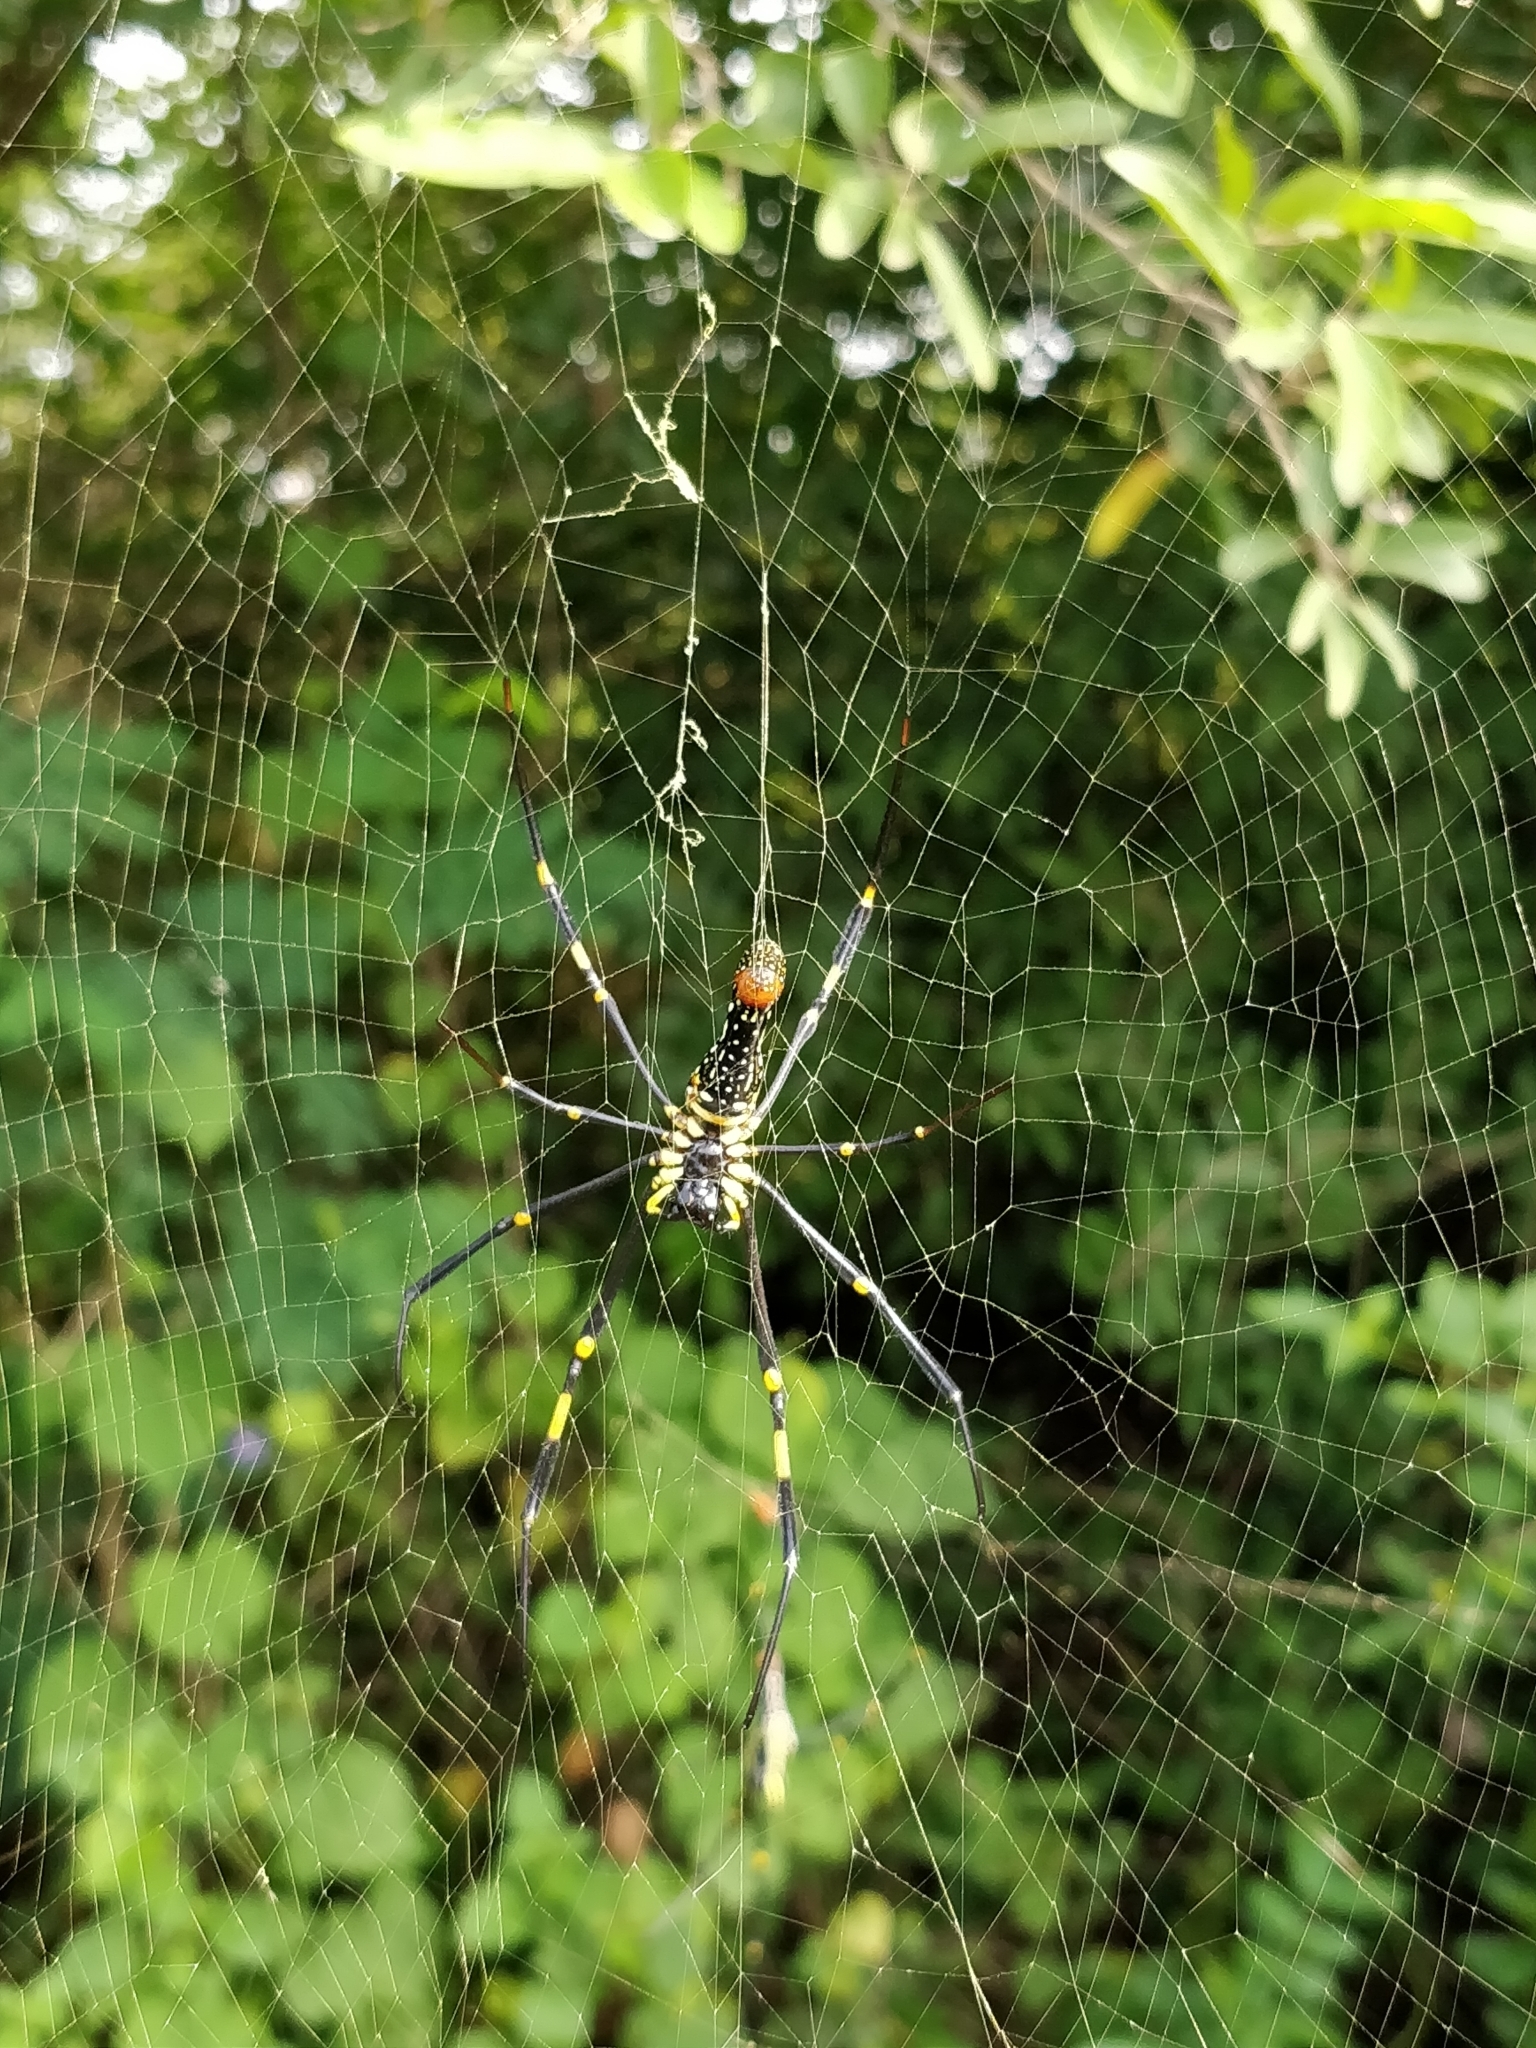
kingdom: Animalia
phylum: Arthropoda
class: Arachnida
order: Araneae
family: Araneidae
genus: Nephila
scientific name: Nephila pilipes
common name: Giant golden orb weaver
